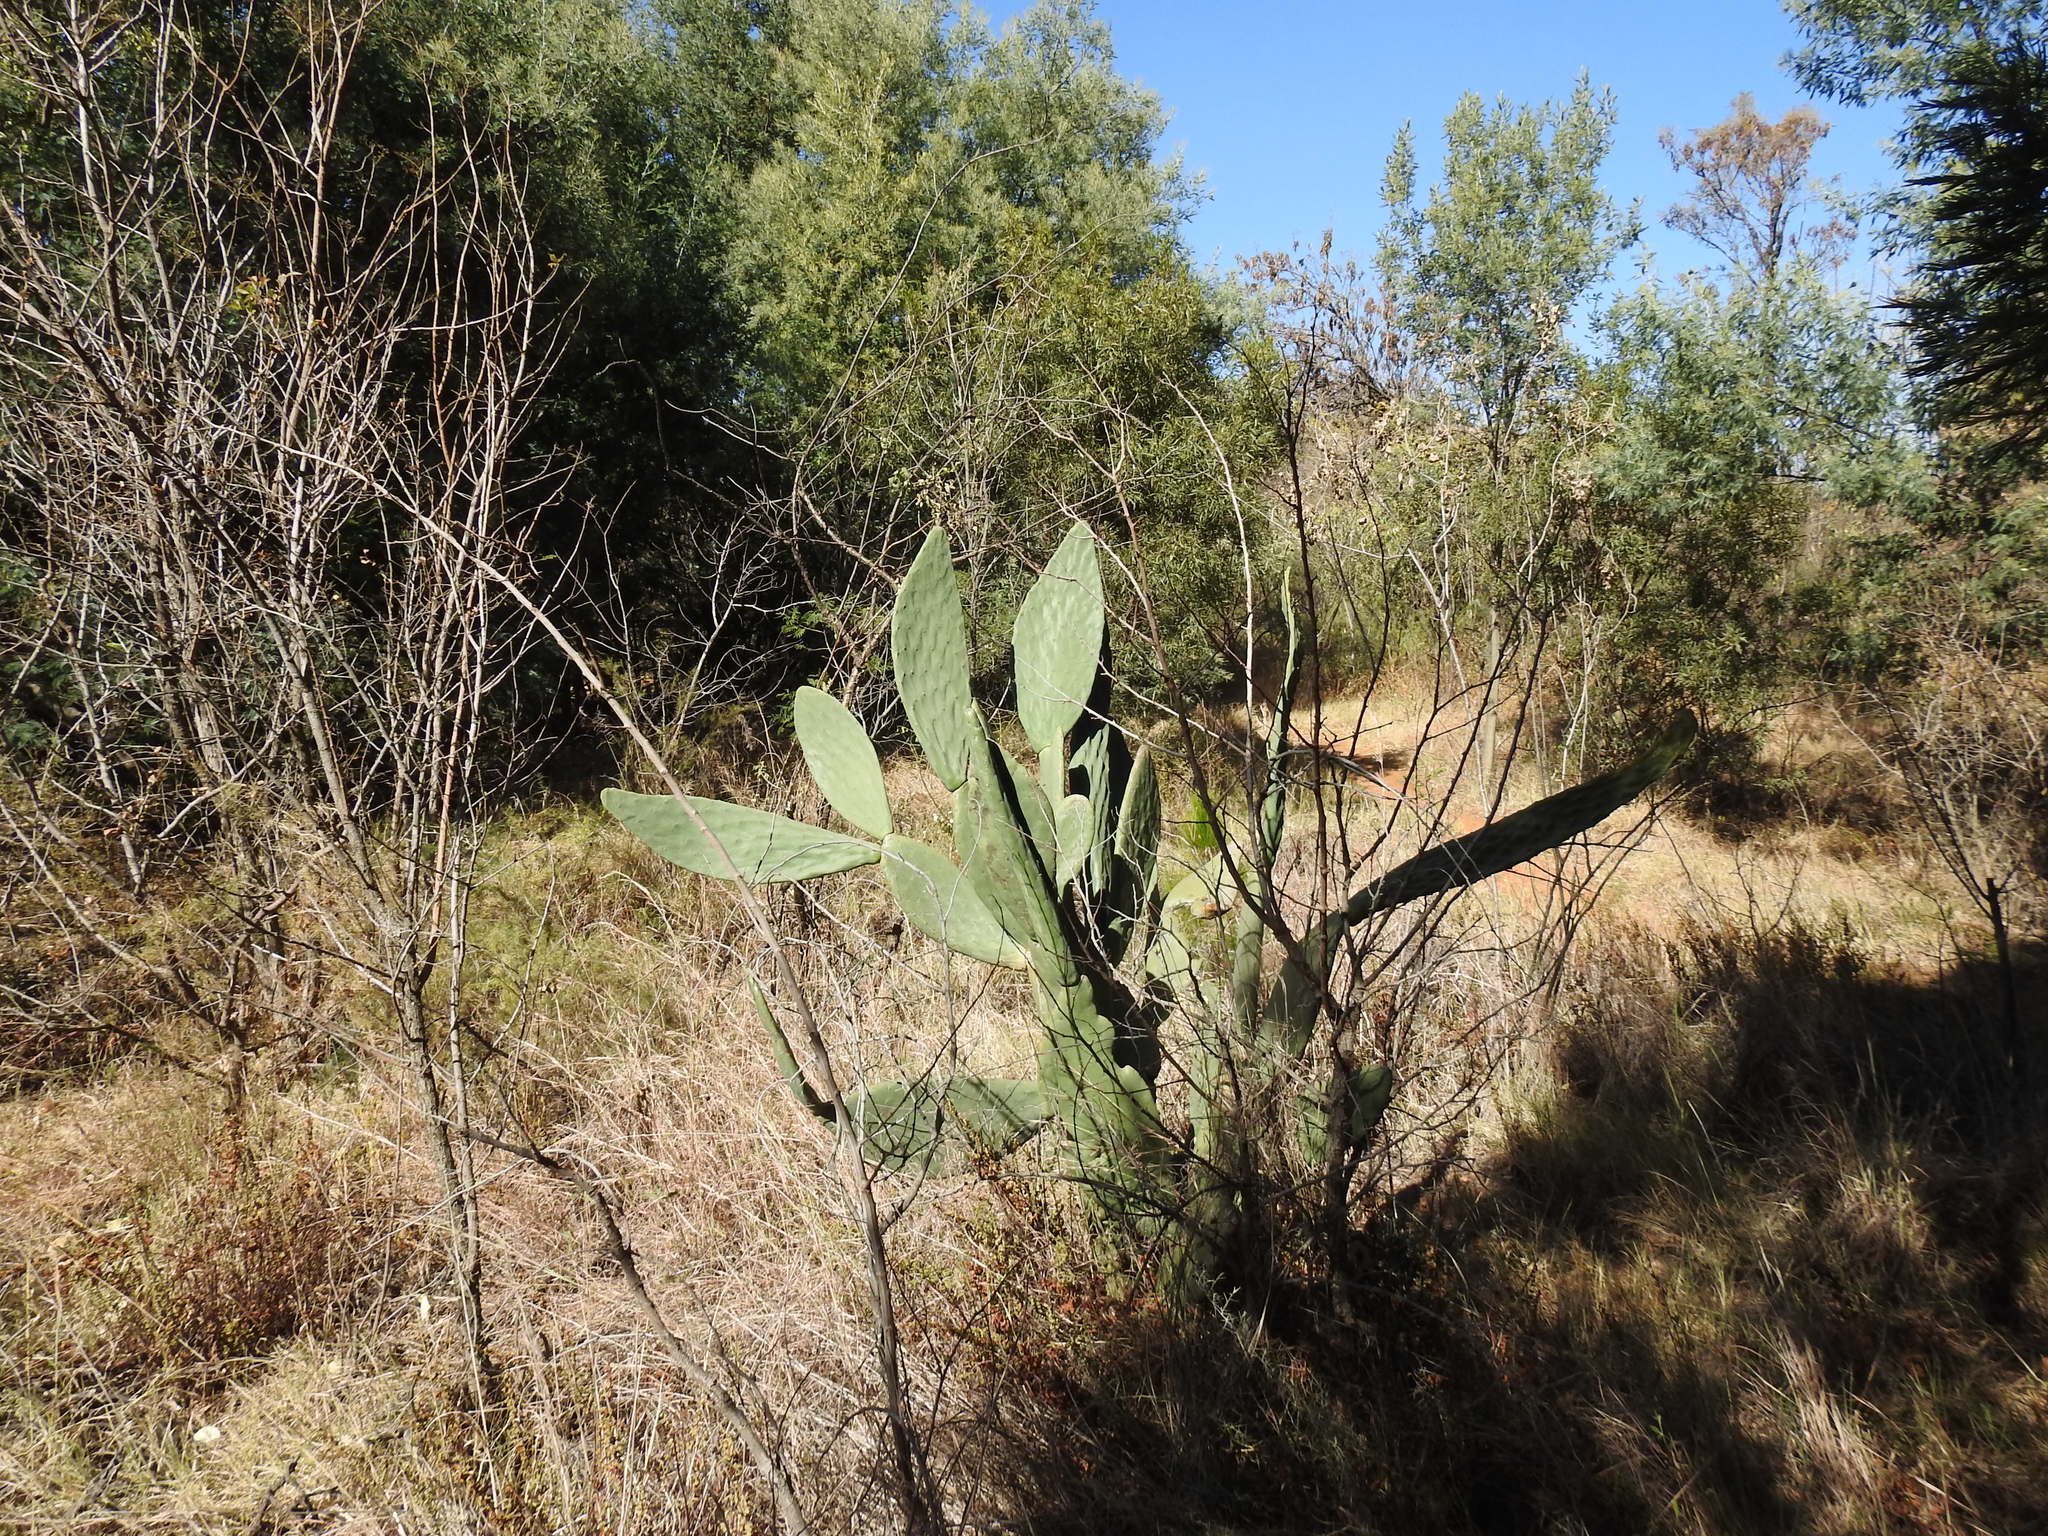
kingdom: Plantae
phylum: Tracheophyta
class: Magnoliopsida
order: Caryophyllales
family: Cactaceae
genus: Opuntia
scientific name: Opuntia ficus-indica
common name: Barbary fig
